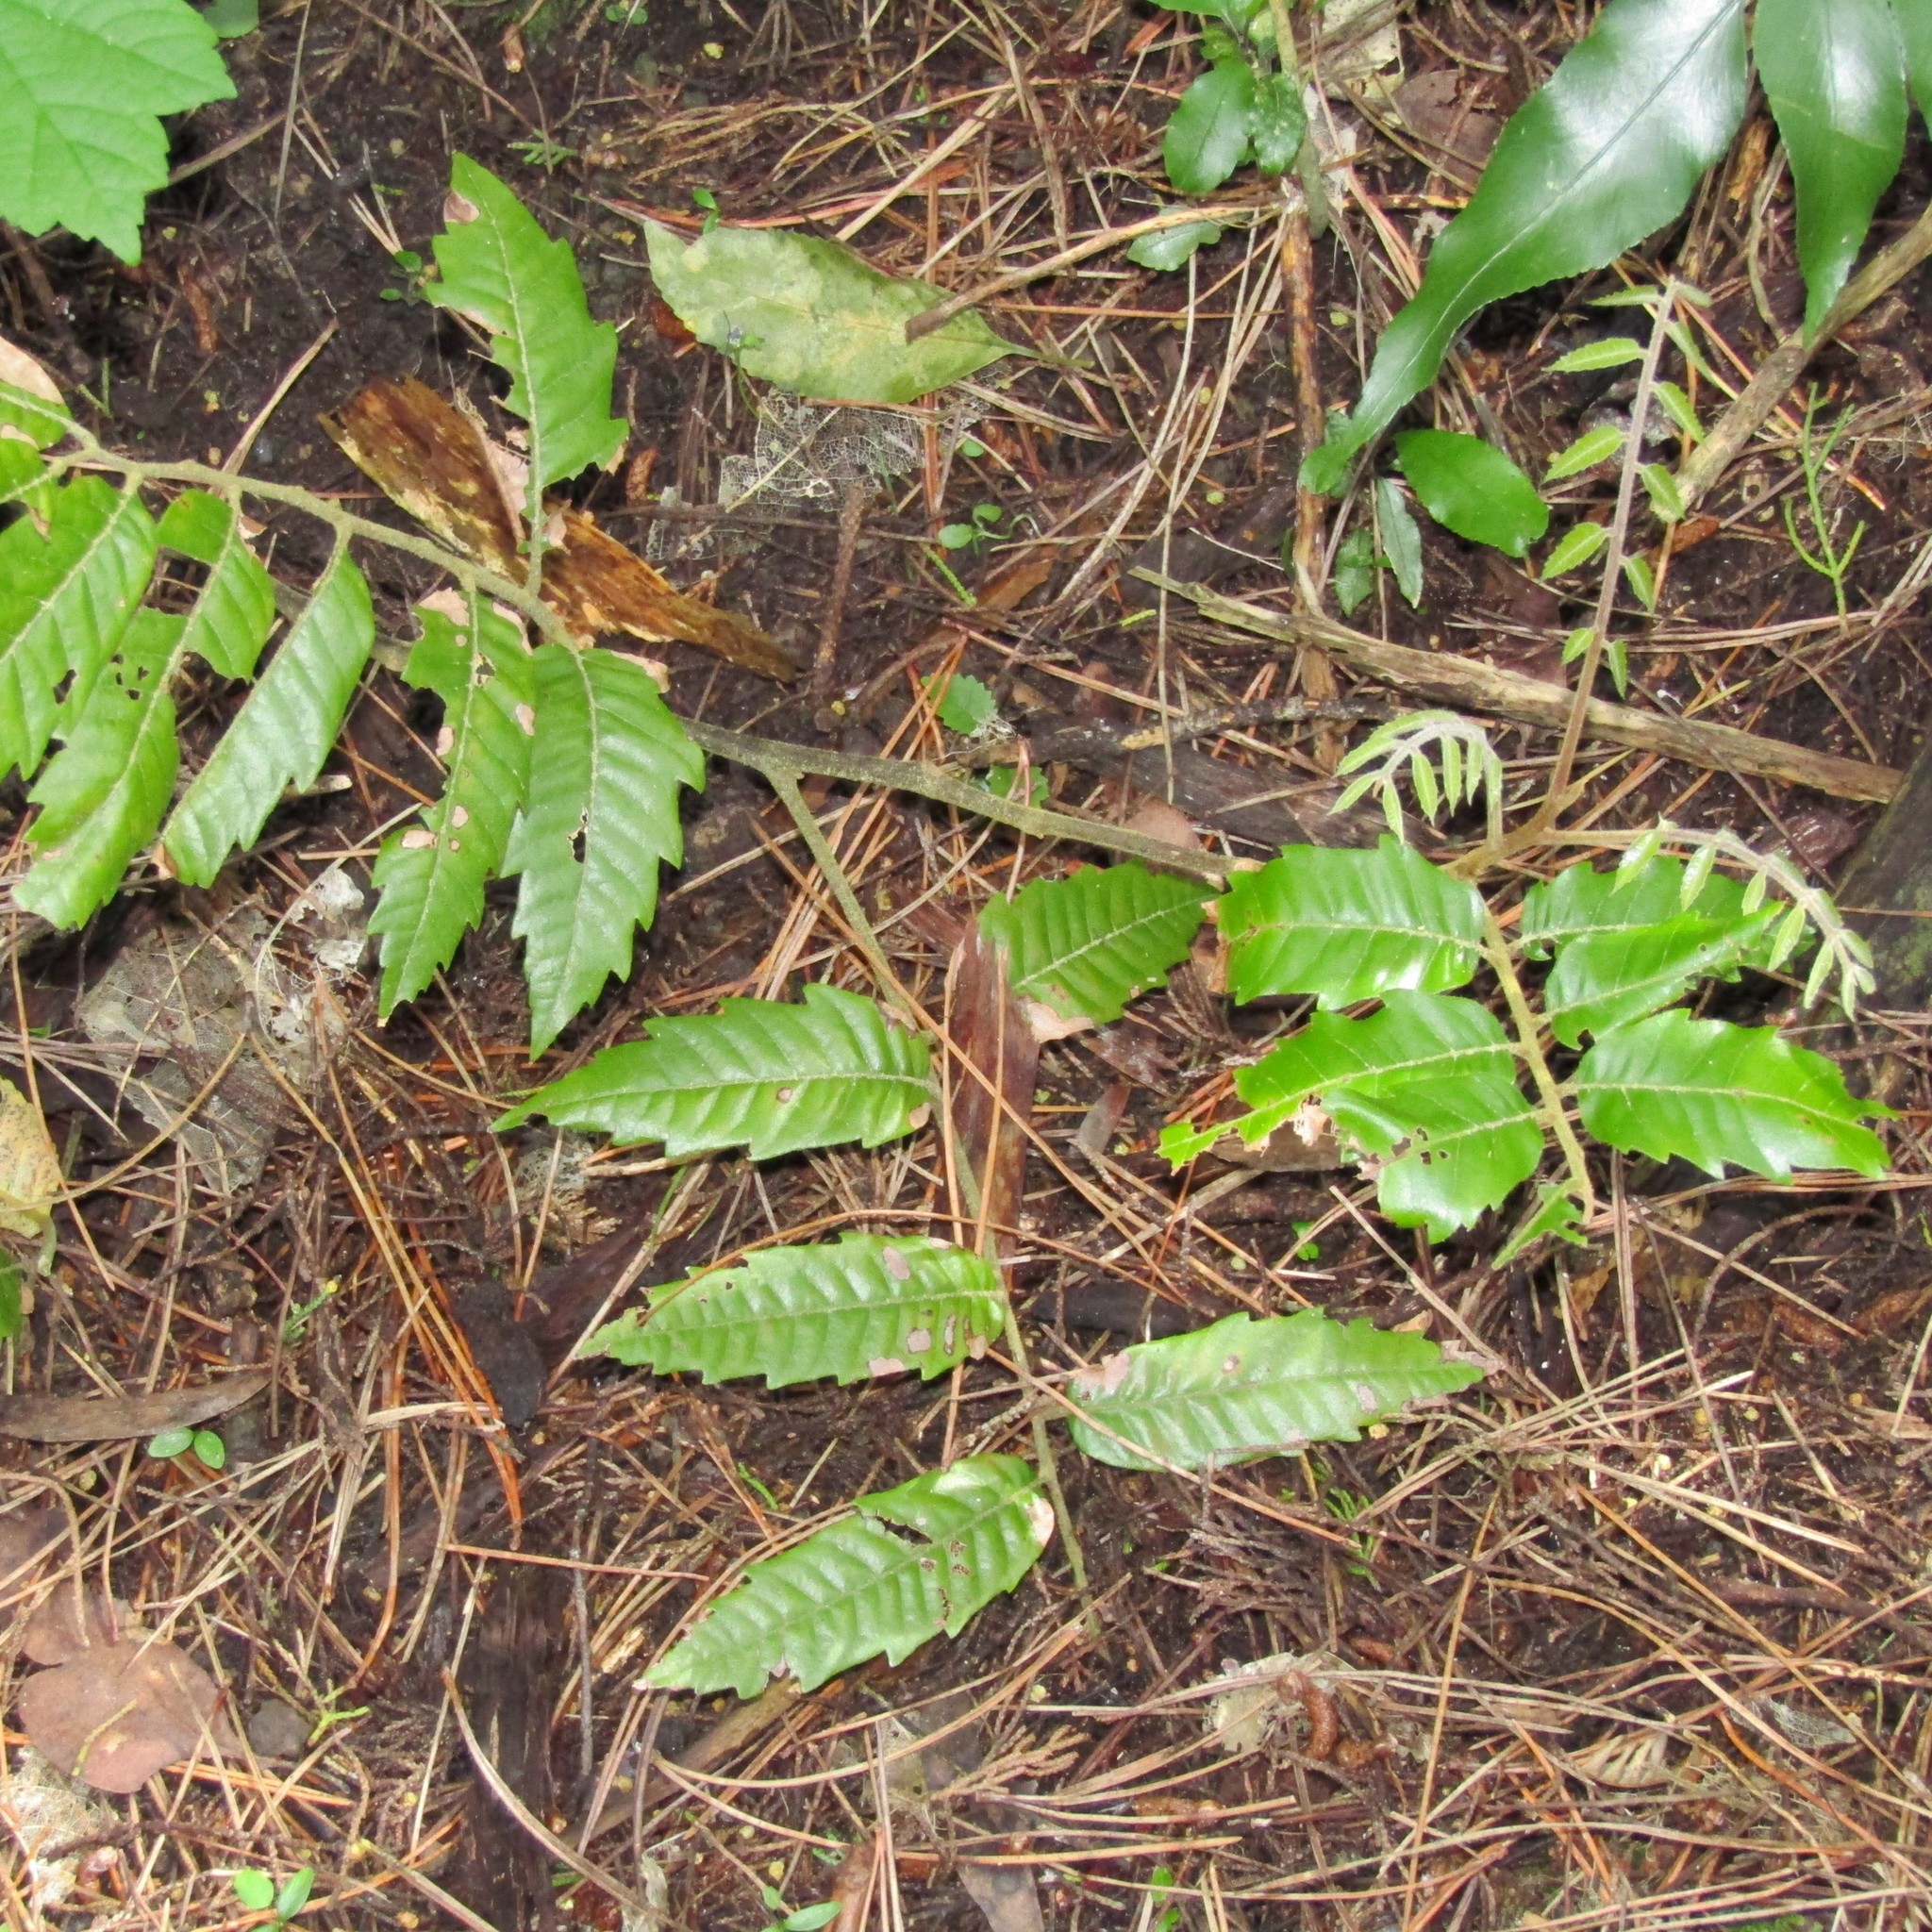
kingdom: Plantae
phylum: Tracheophyta
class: Magnoliopsida
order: Sapindales
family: Sapindaceae
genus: Alectryon
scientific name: Alectryon excelsus
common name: Three kings titoki
